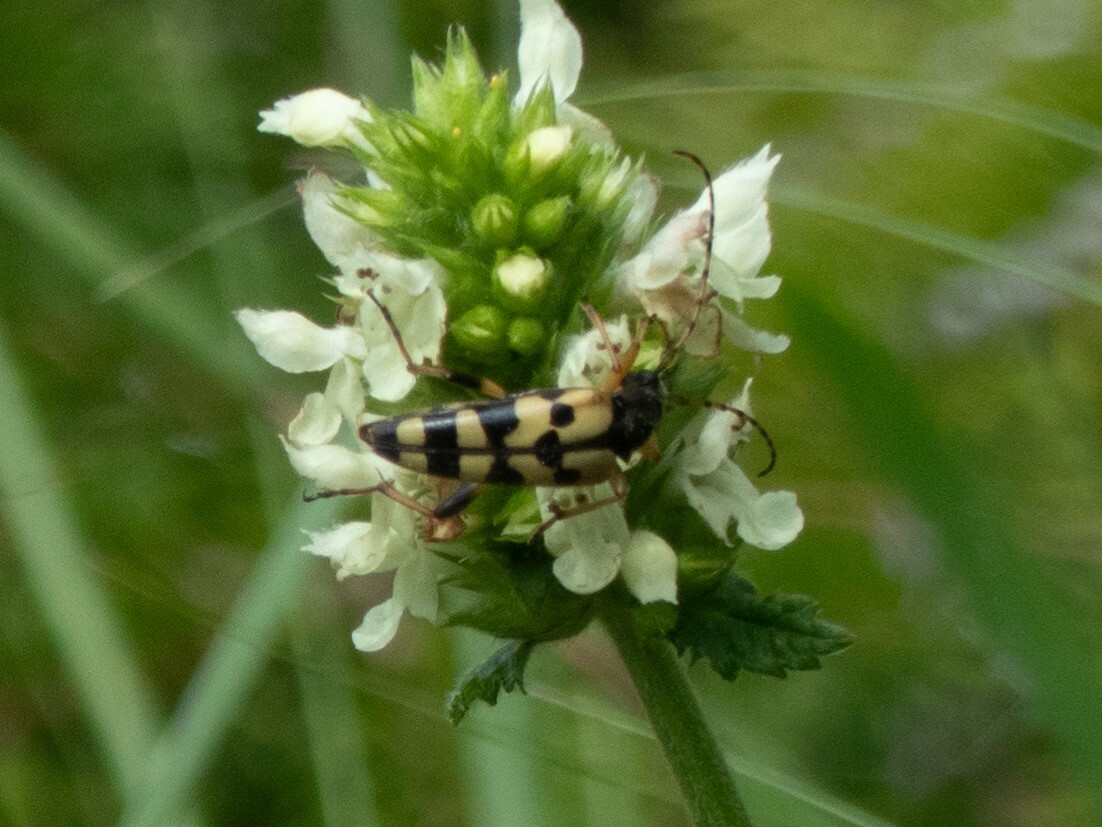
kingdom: Animalia
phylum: Arthropoda
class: Insecta
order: Coleoptera
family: Cerambycidae
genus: Rutpela
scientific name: Rutpela maculata
